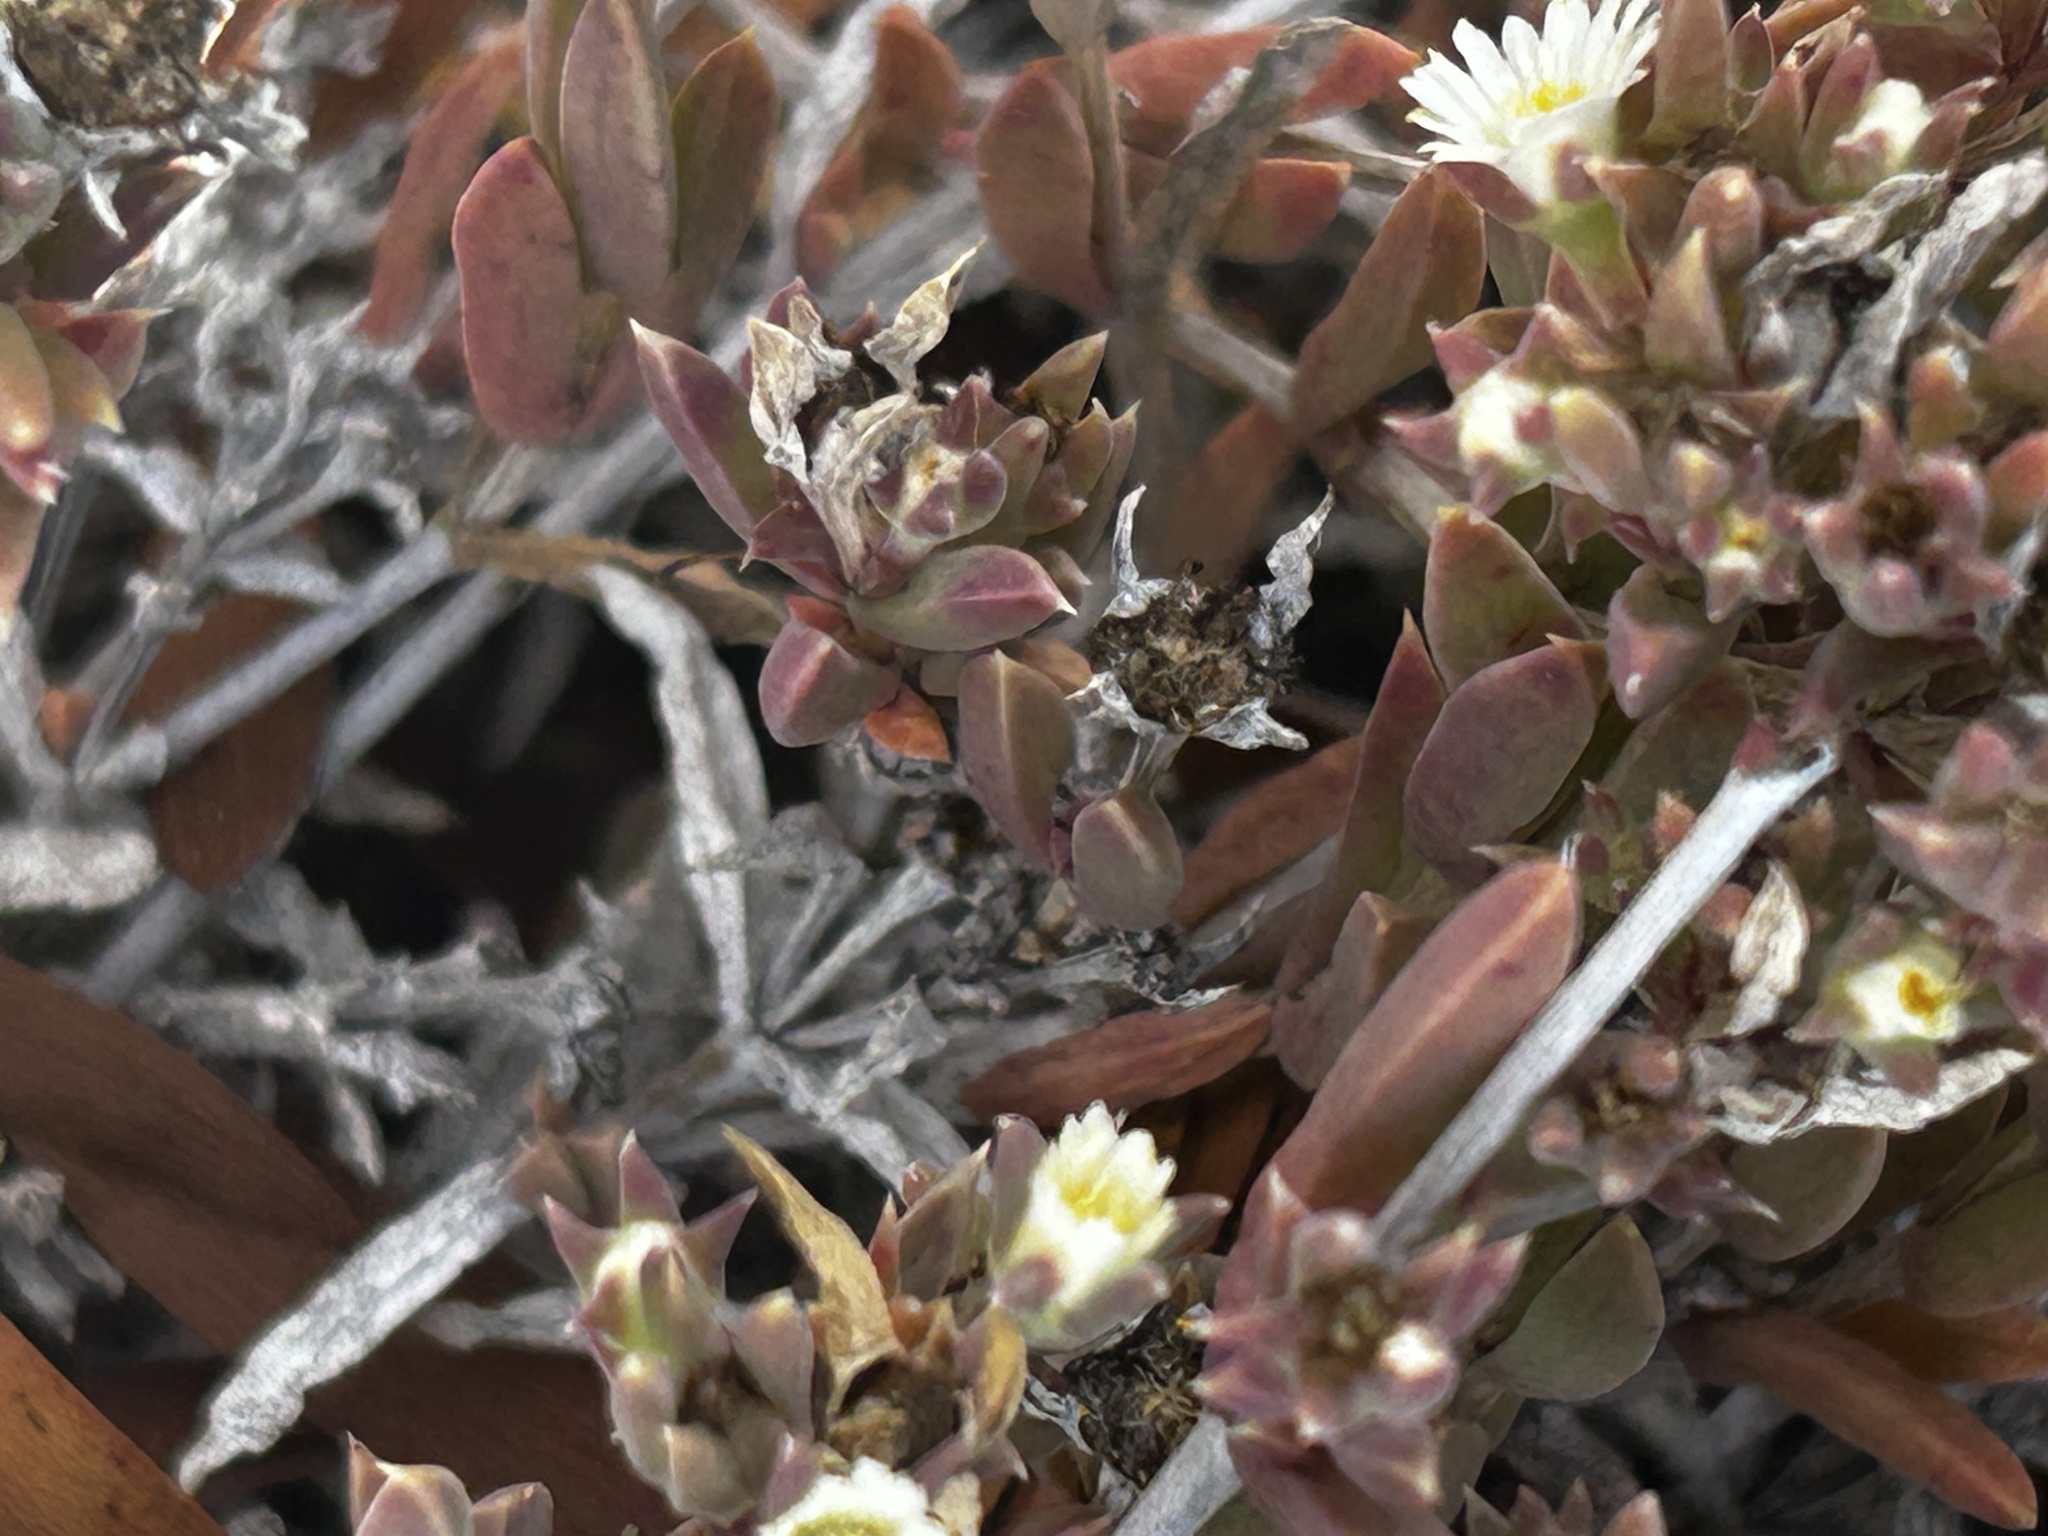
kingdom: Plantae
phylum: Tracheophyta
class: Magnoliopsida
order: Caryophyllales
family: Aizoaceae
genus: Delosperma
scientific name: Delosperma inconspicuum
